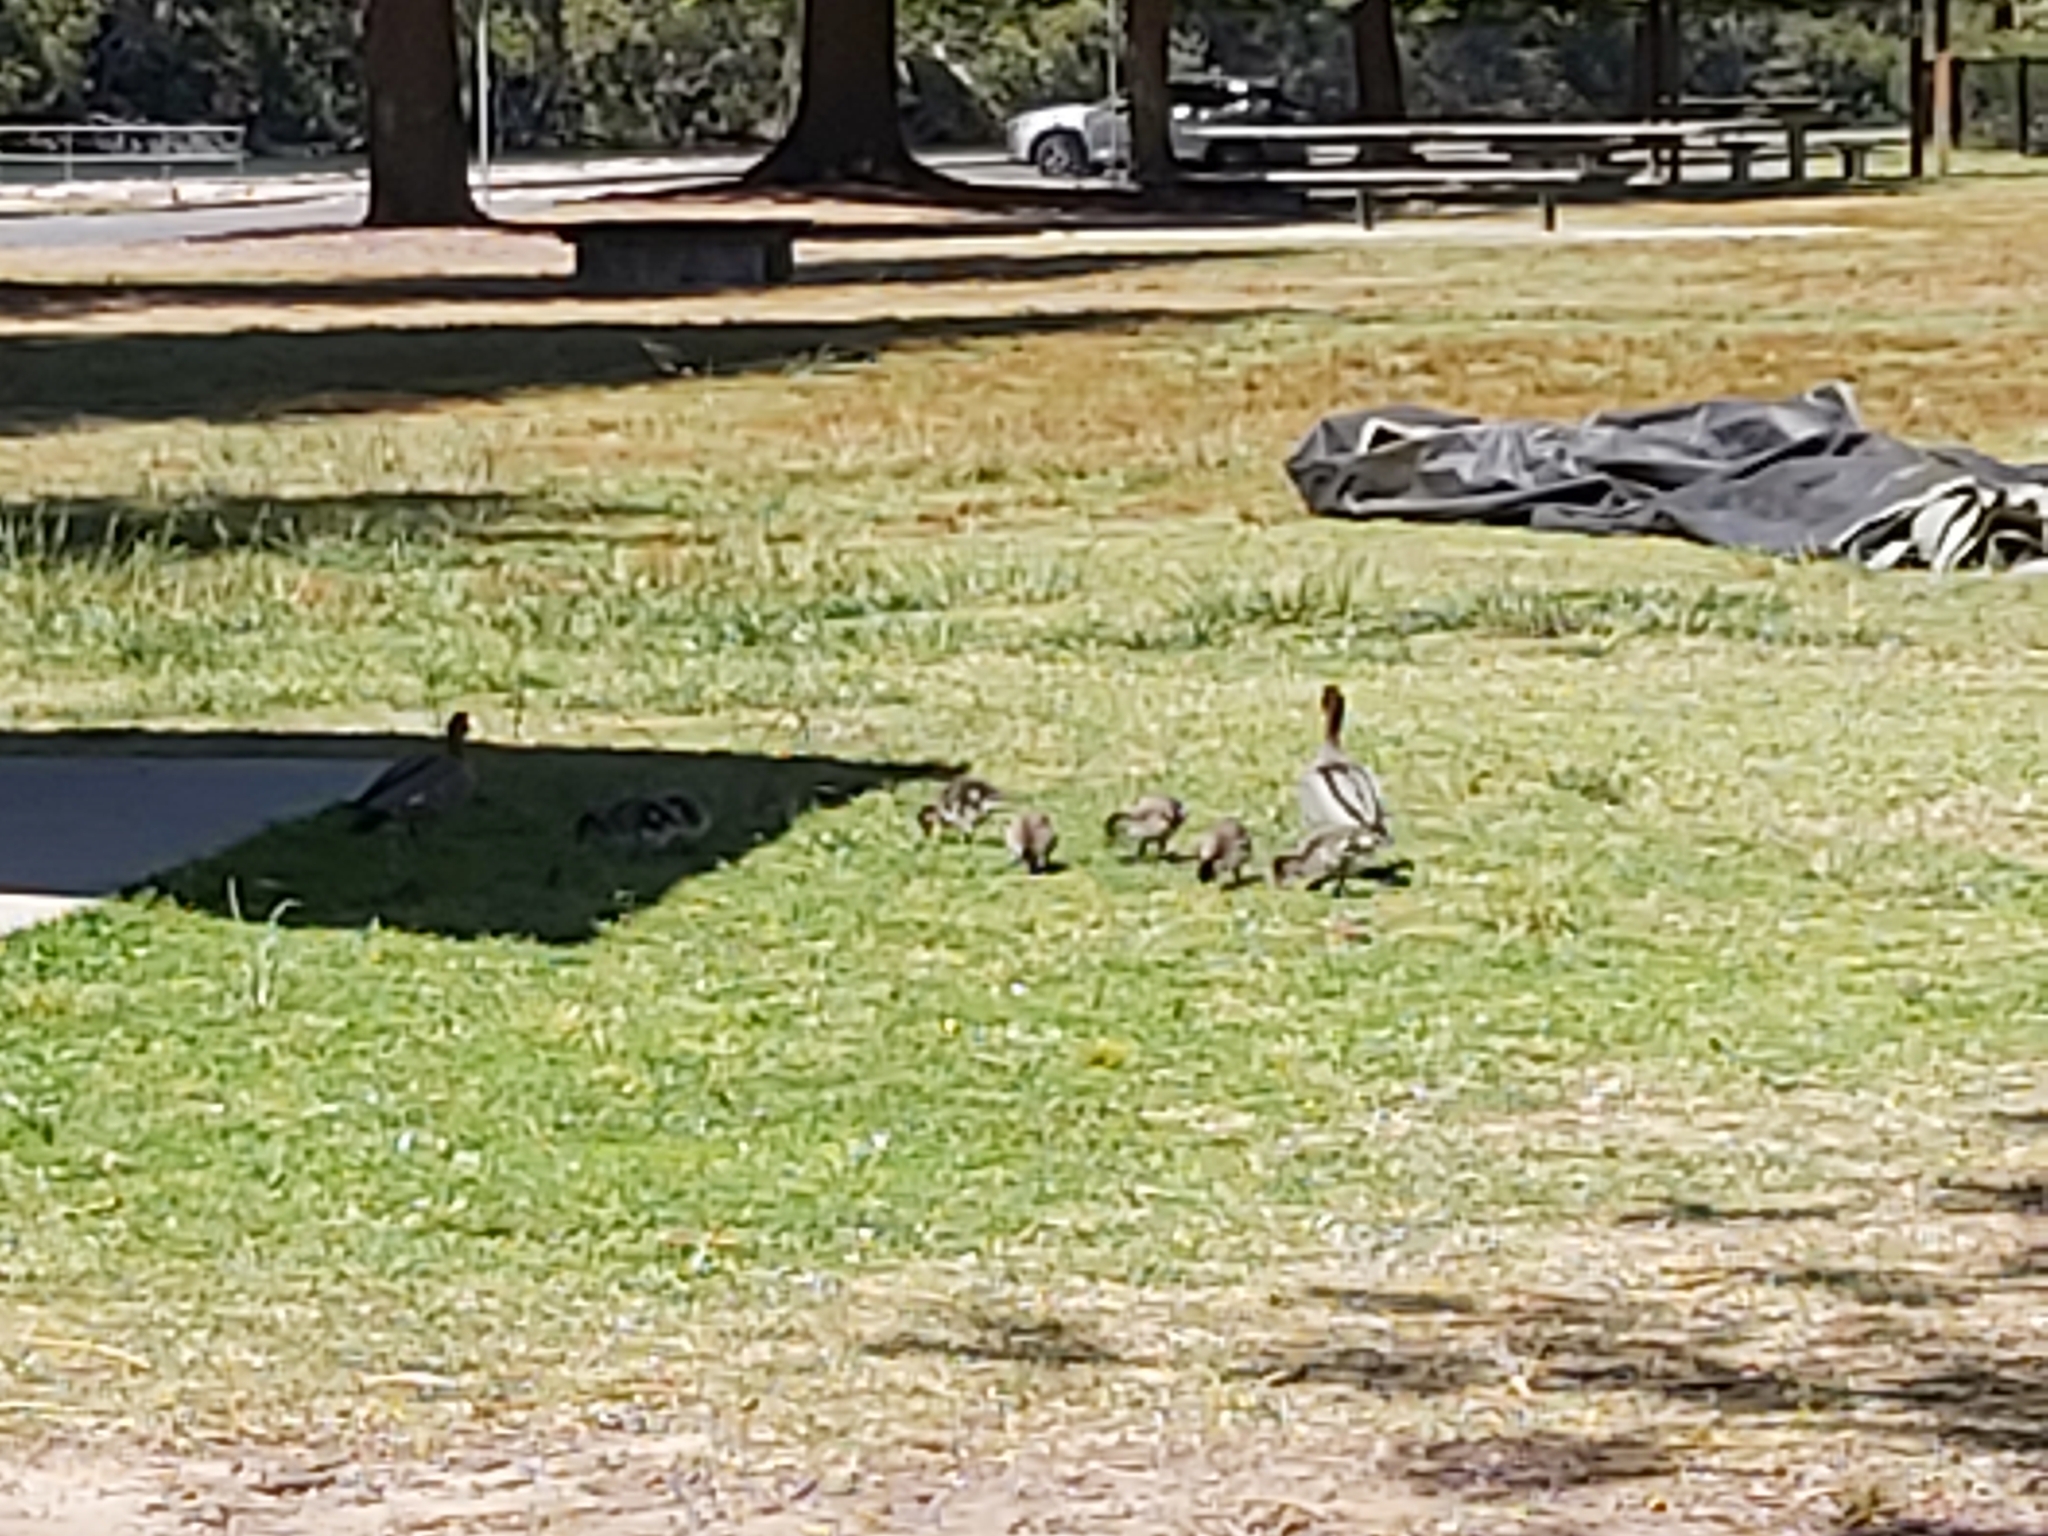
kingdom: Animalia
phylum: Chordata
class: Aves
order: Anseriformes
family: Anatidae
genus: Chenonetta
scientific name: Chenonetta jubata
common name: Maned duck
